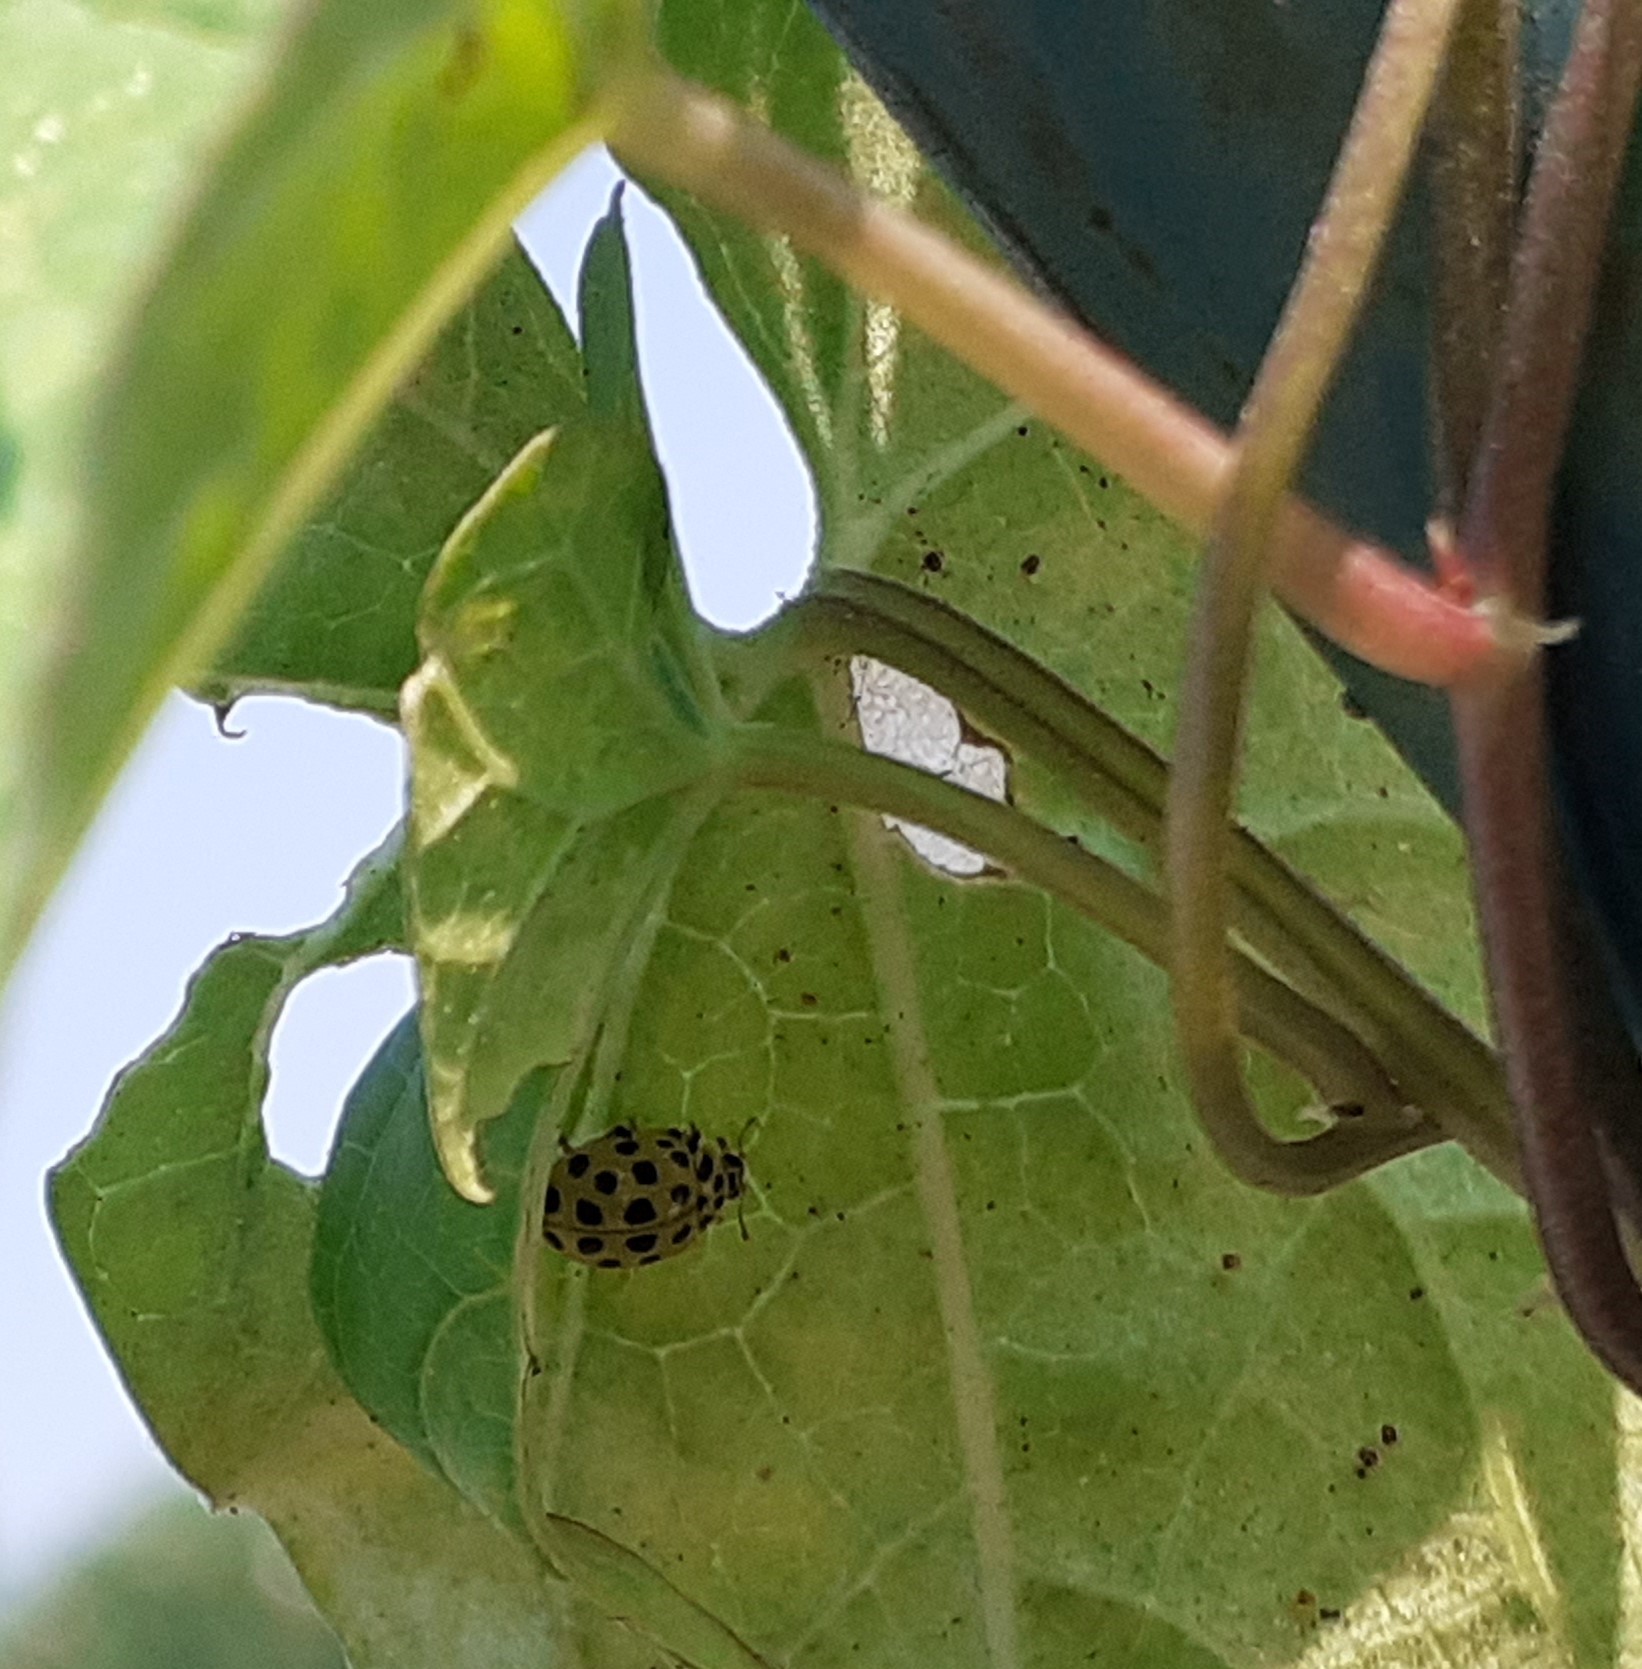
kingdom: Animalia
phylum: Arthropoda
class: Insecta
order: Coleoptera
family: Coccinellidae
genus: Psyllobora
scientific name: Psyllobora vigintiduopunctata
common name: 22-spot ladybird
